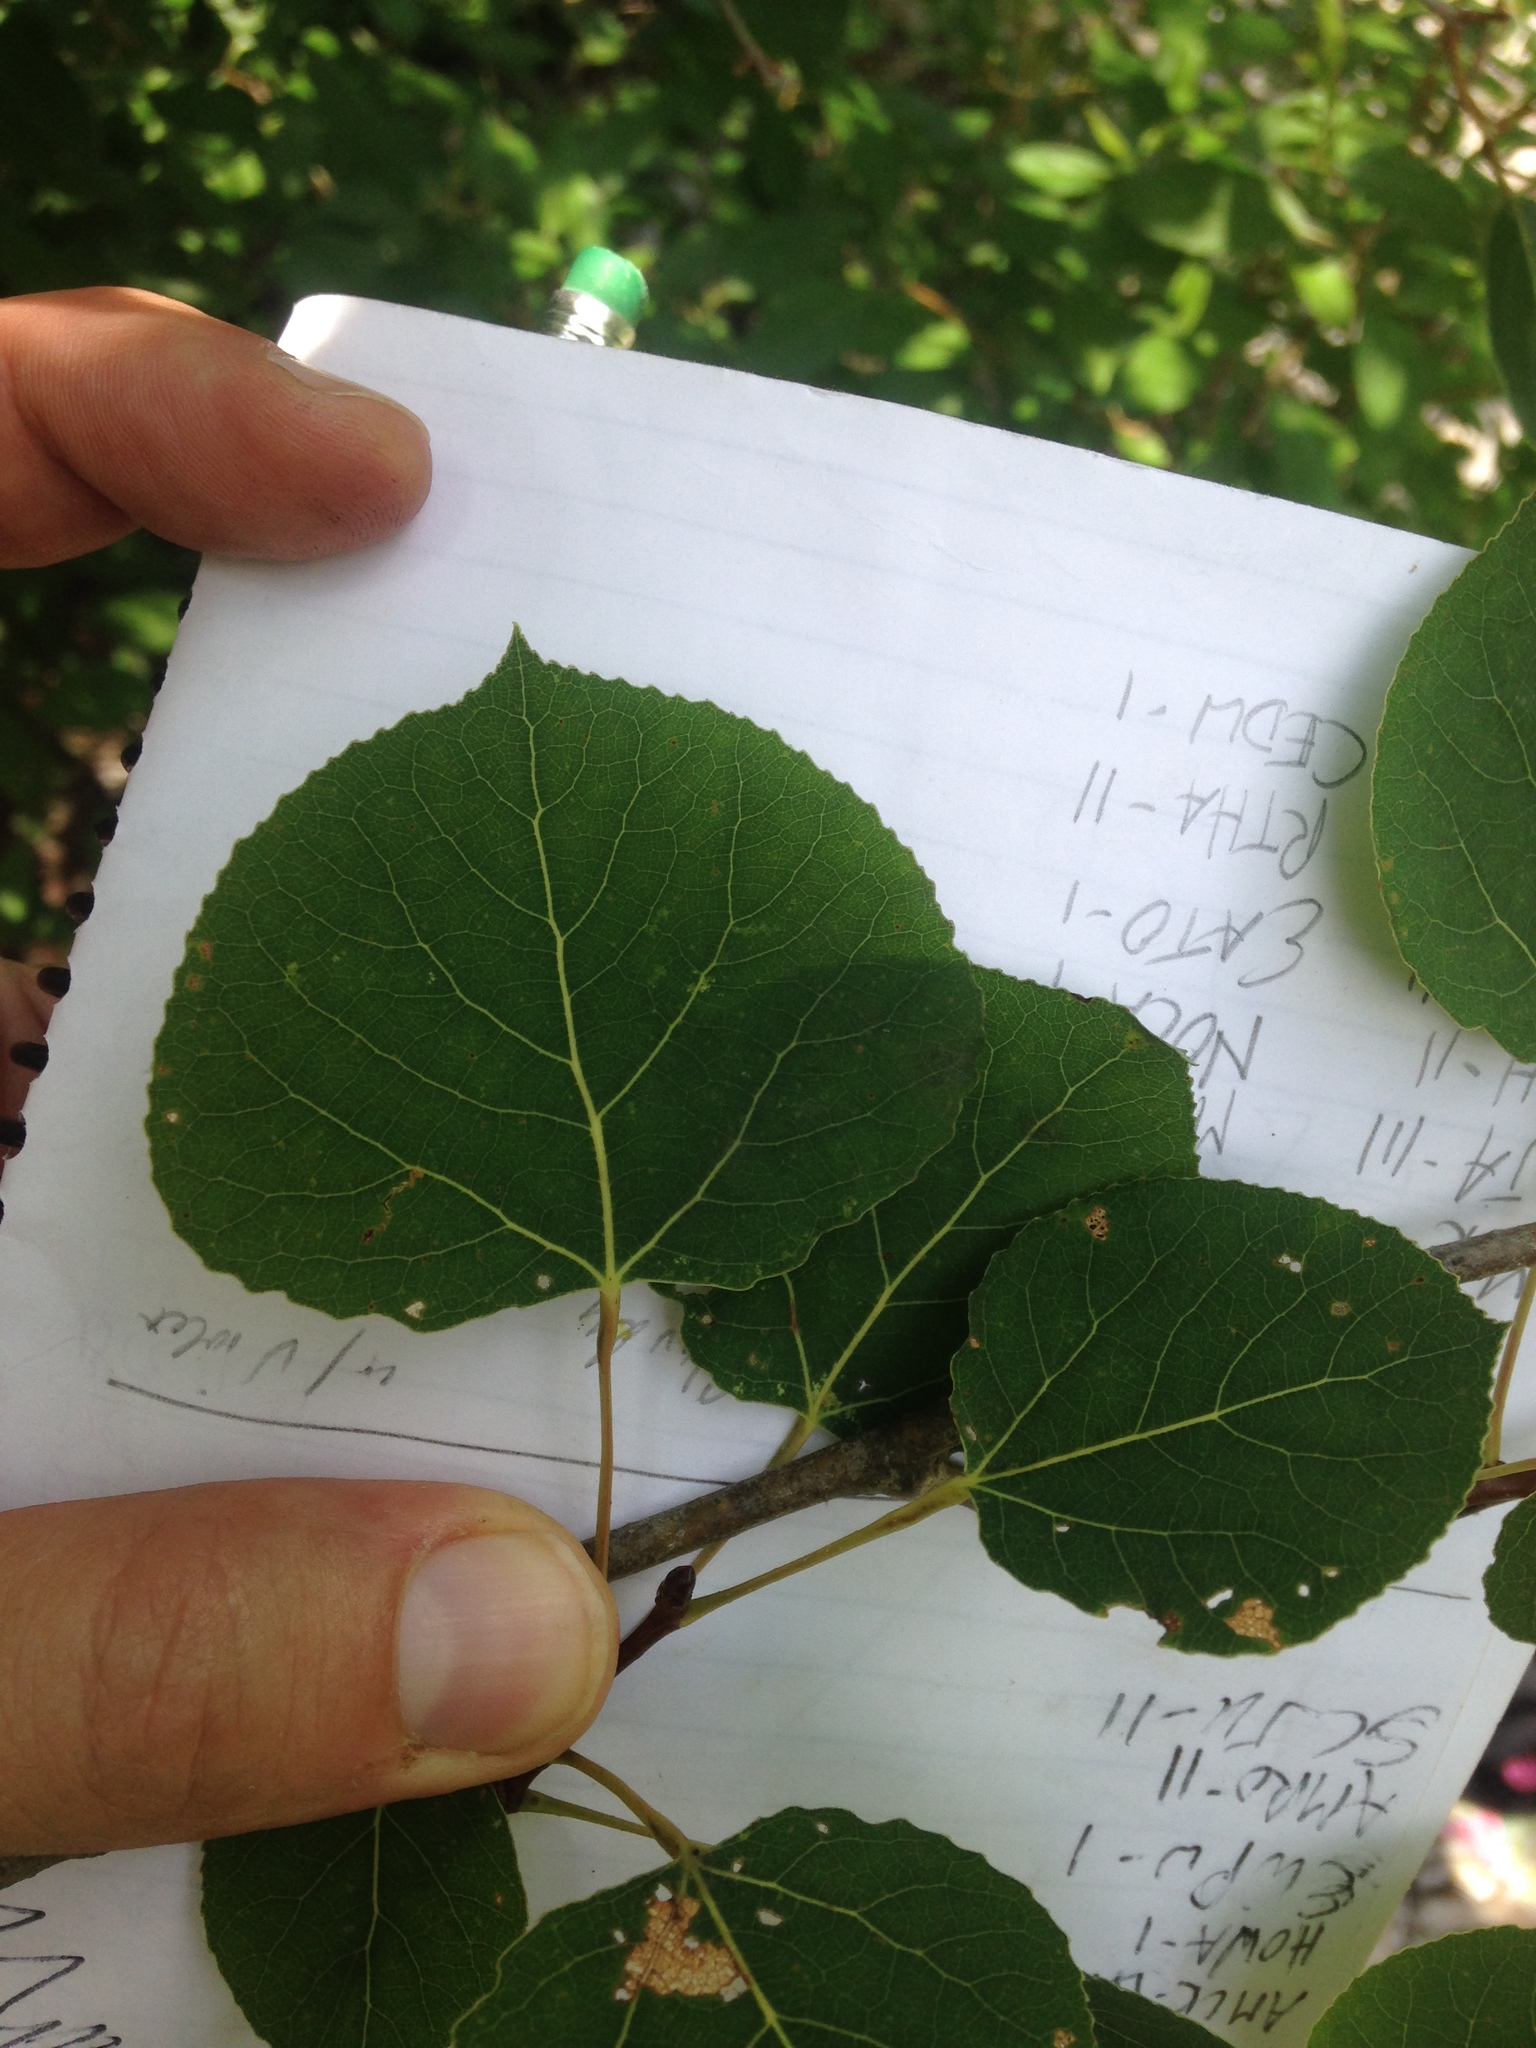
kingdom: Plantae
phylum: Tracheophyta
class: Magnoliopsida
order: Malpighiales
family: Salicaceae
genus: Populus
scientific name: Populus tremuloides
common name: Quaking aspen
